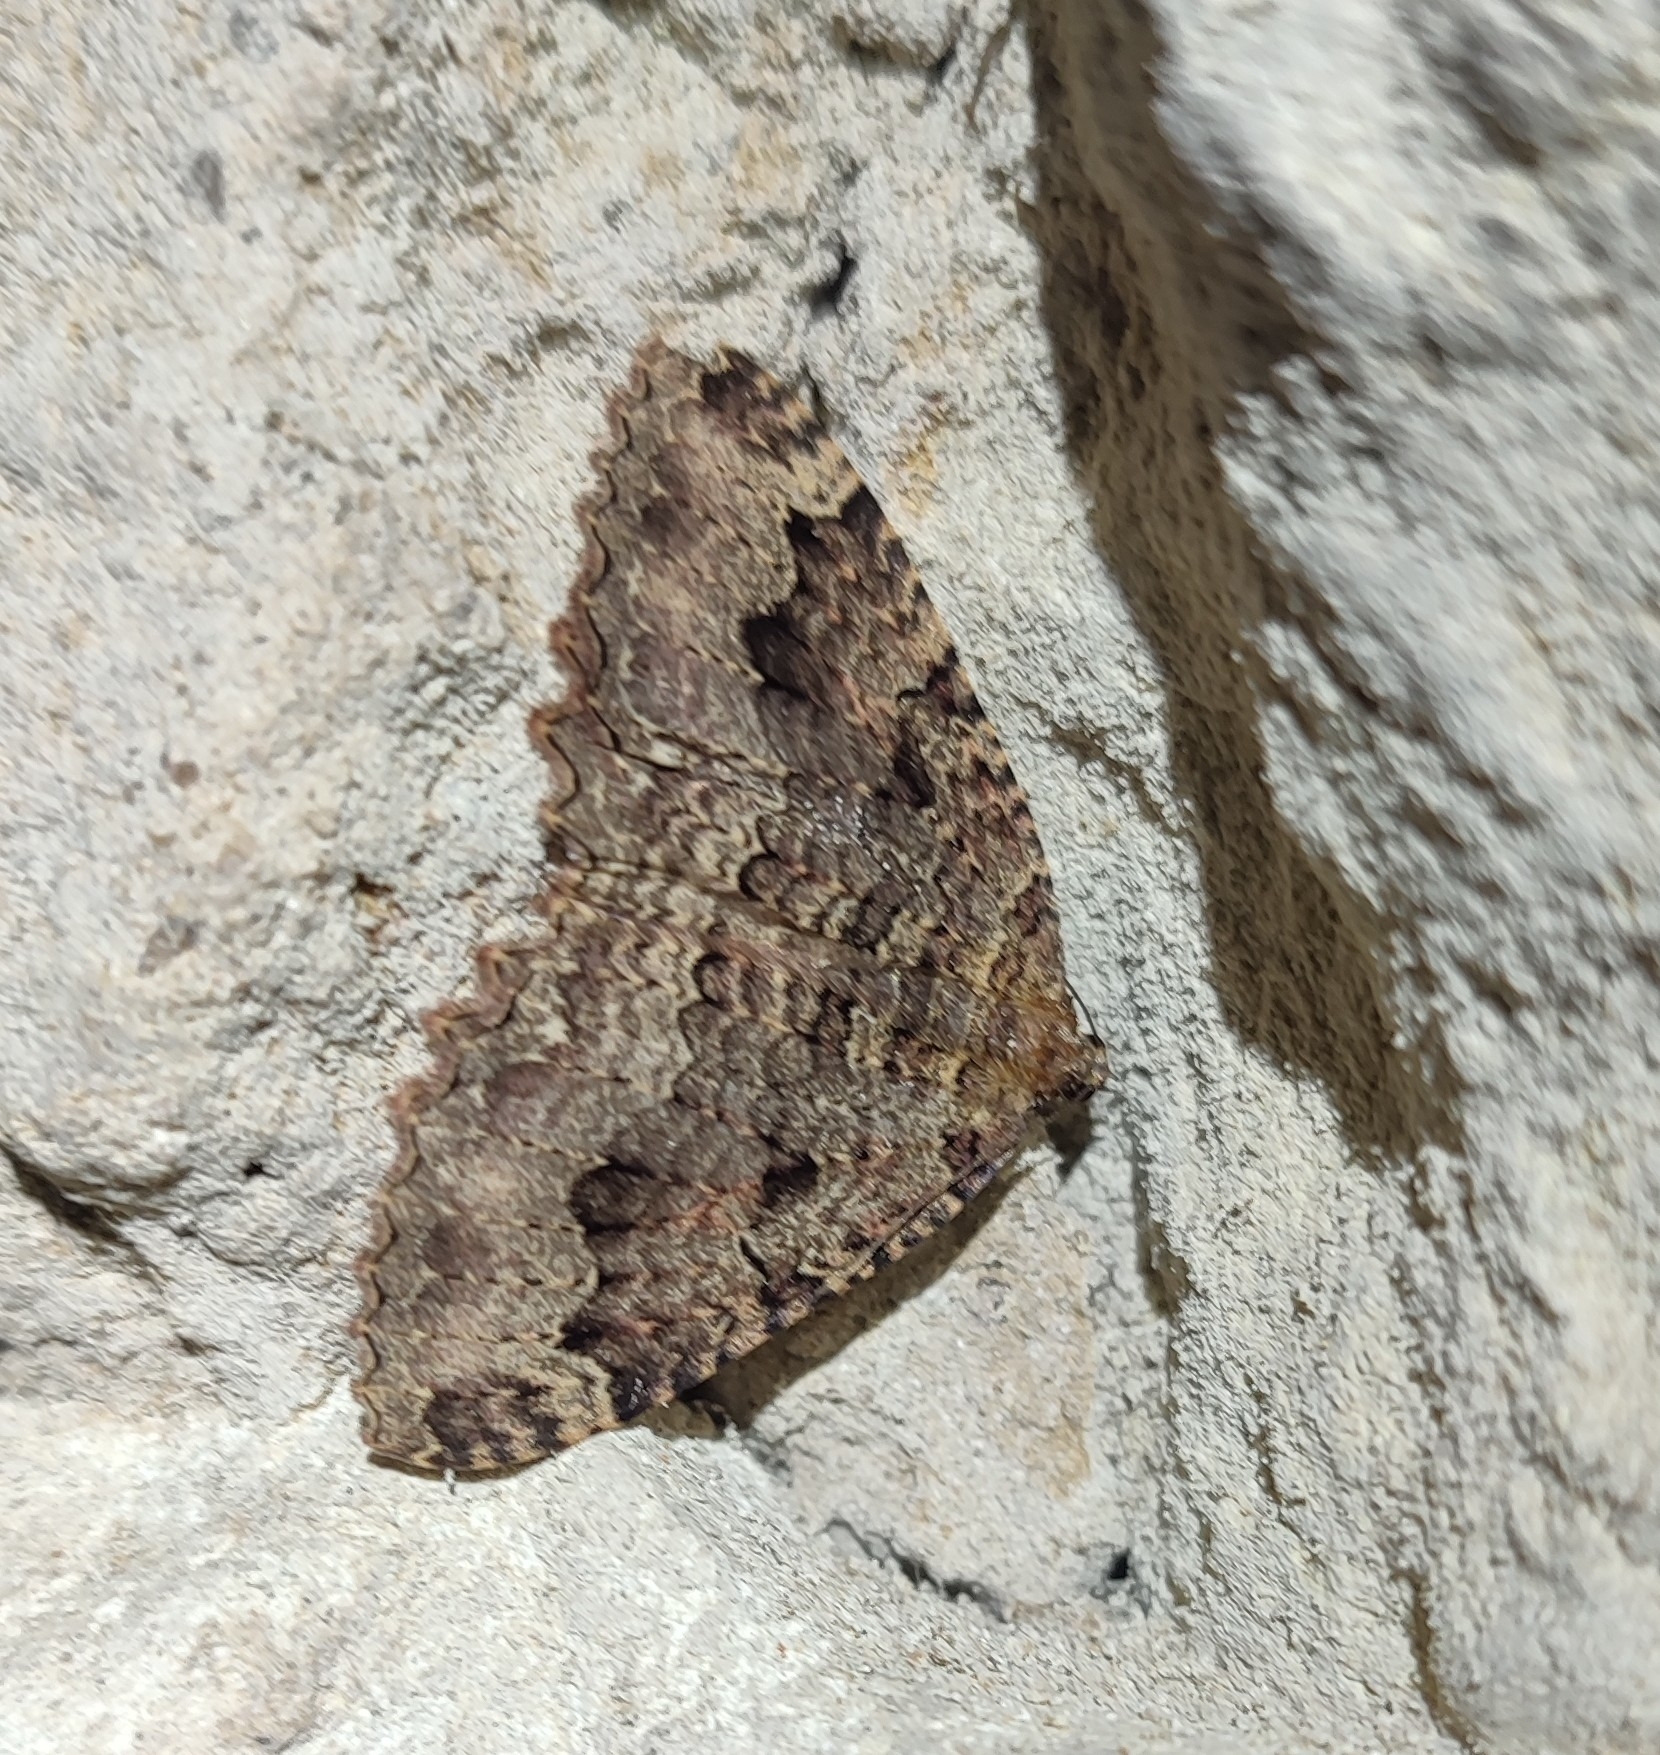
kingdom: Animalia
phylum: Arthropoda
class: Insecta
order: Lepidoptera
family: Geometridae
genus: Triphosa
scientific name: Triphosa dubitata
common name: Tissue
